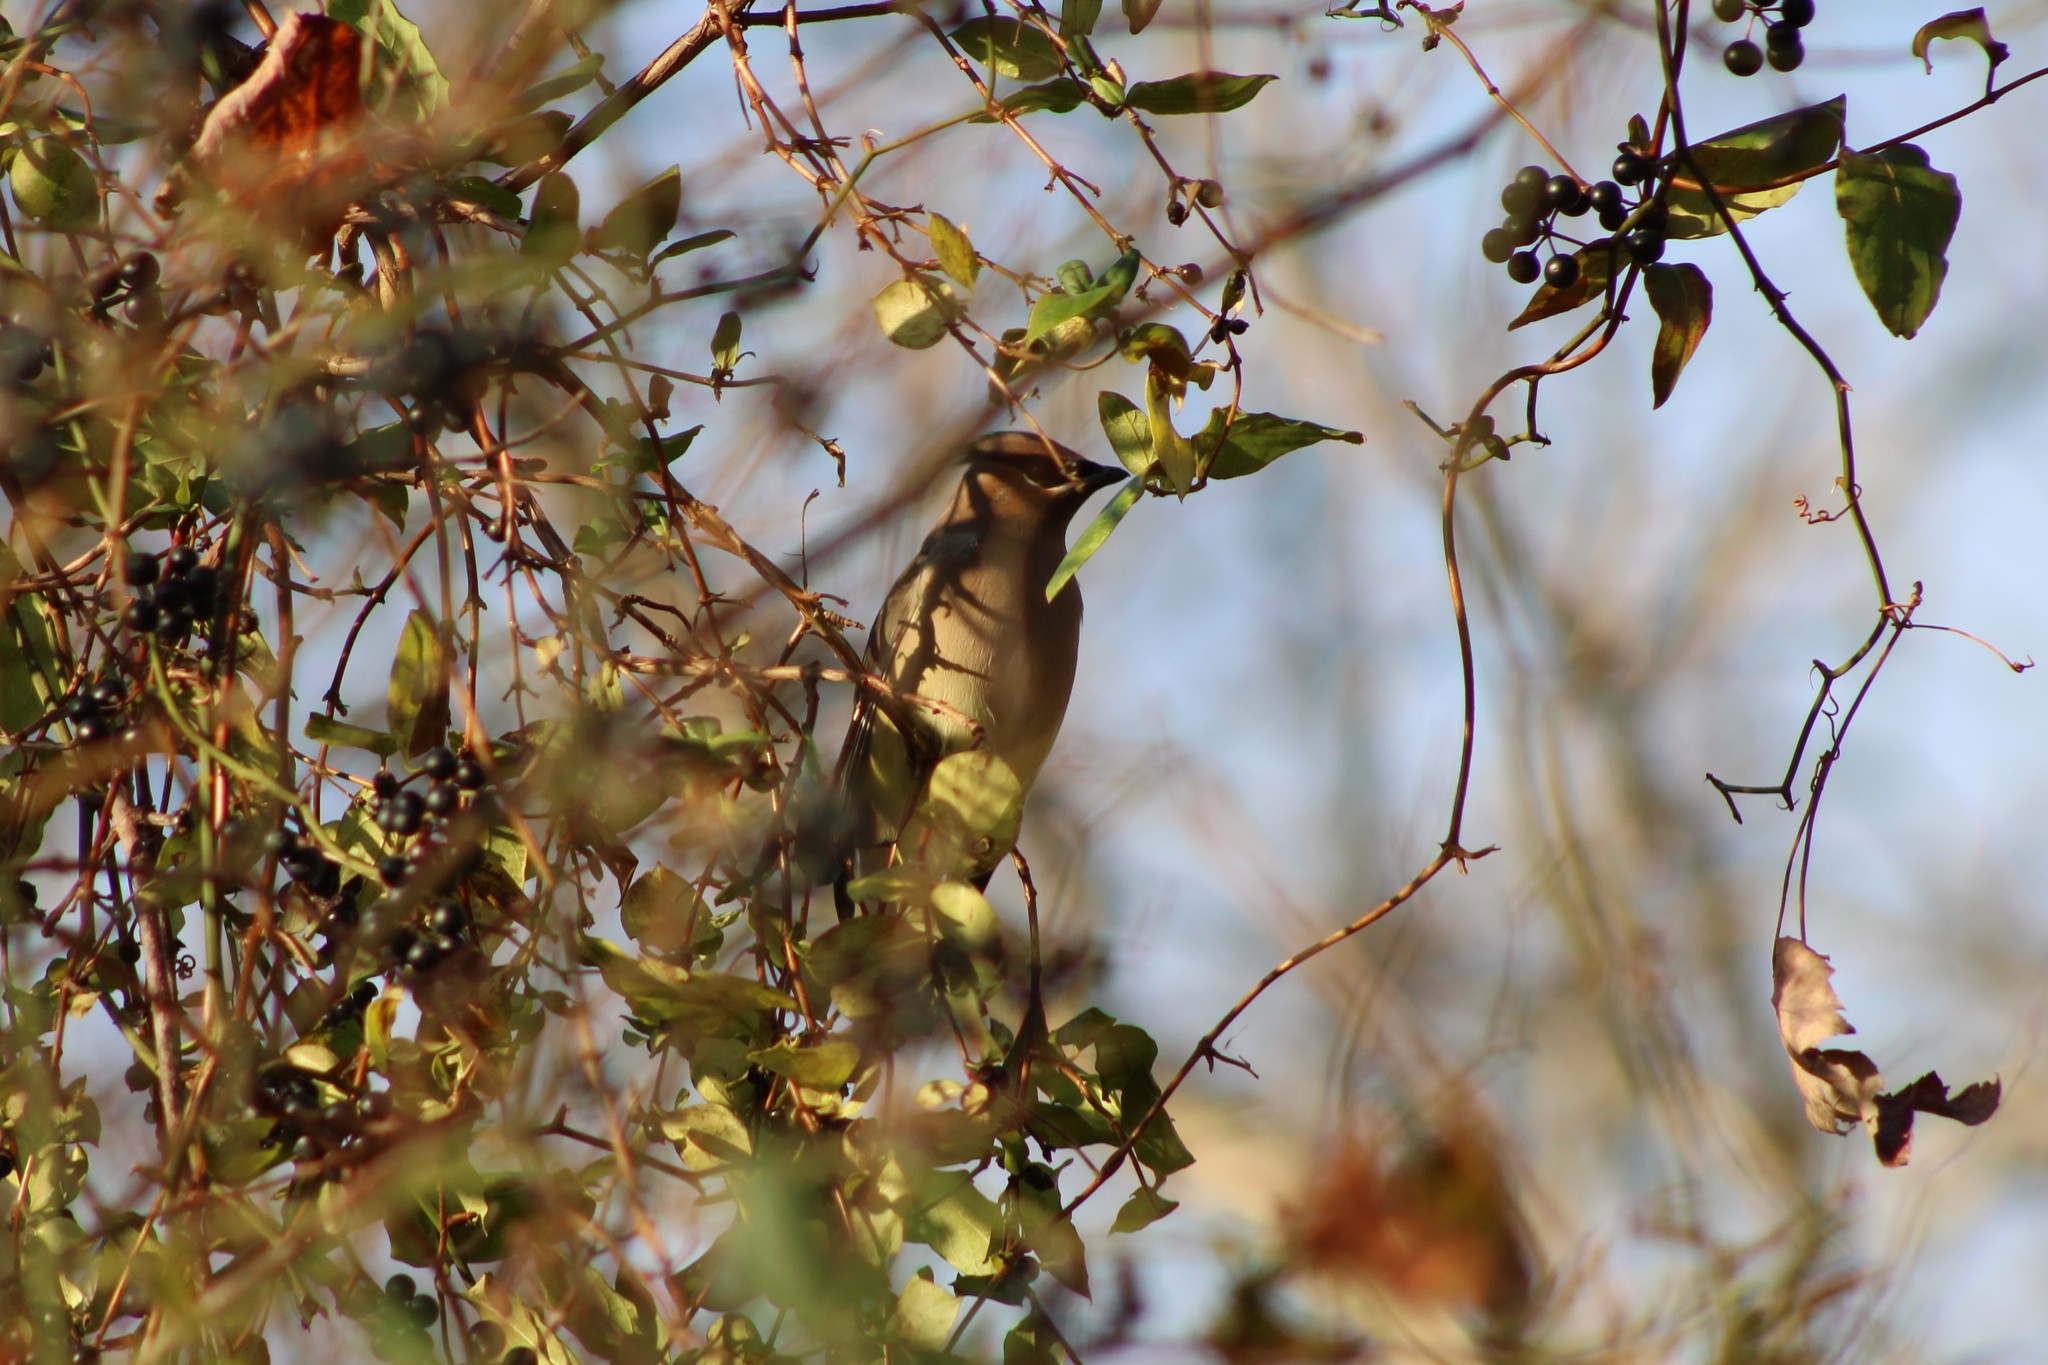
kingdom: Animalia
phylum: Chordata
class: Aves
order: Passeriformes
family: Bombycillidae
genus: Bombycilla
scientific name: Bombycilla cedrorum
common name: Cedar waxwing
